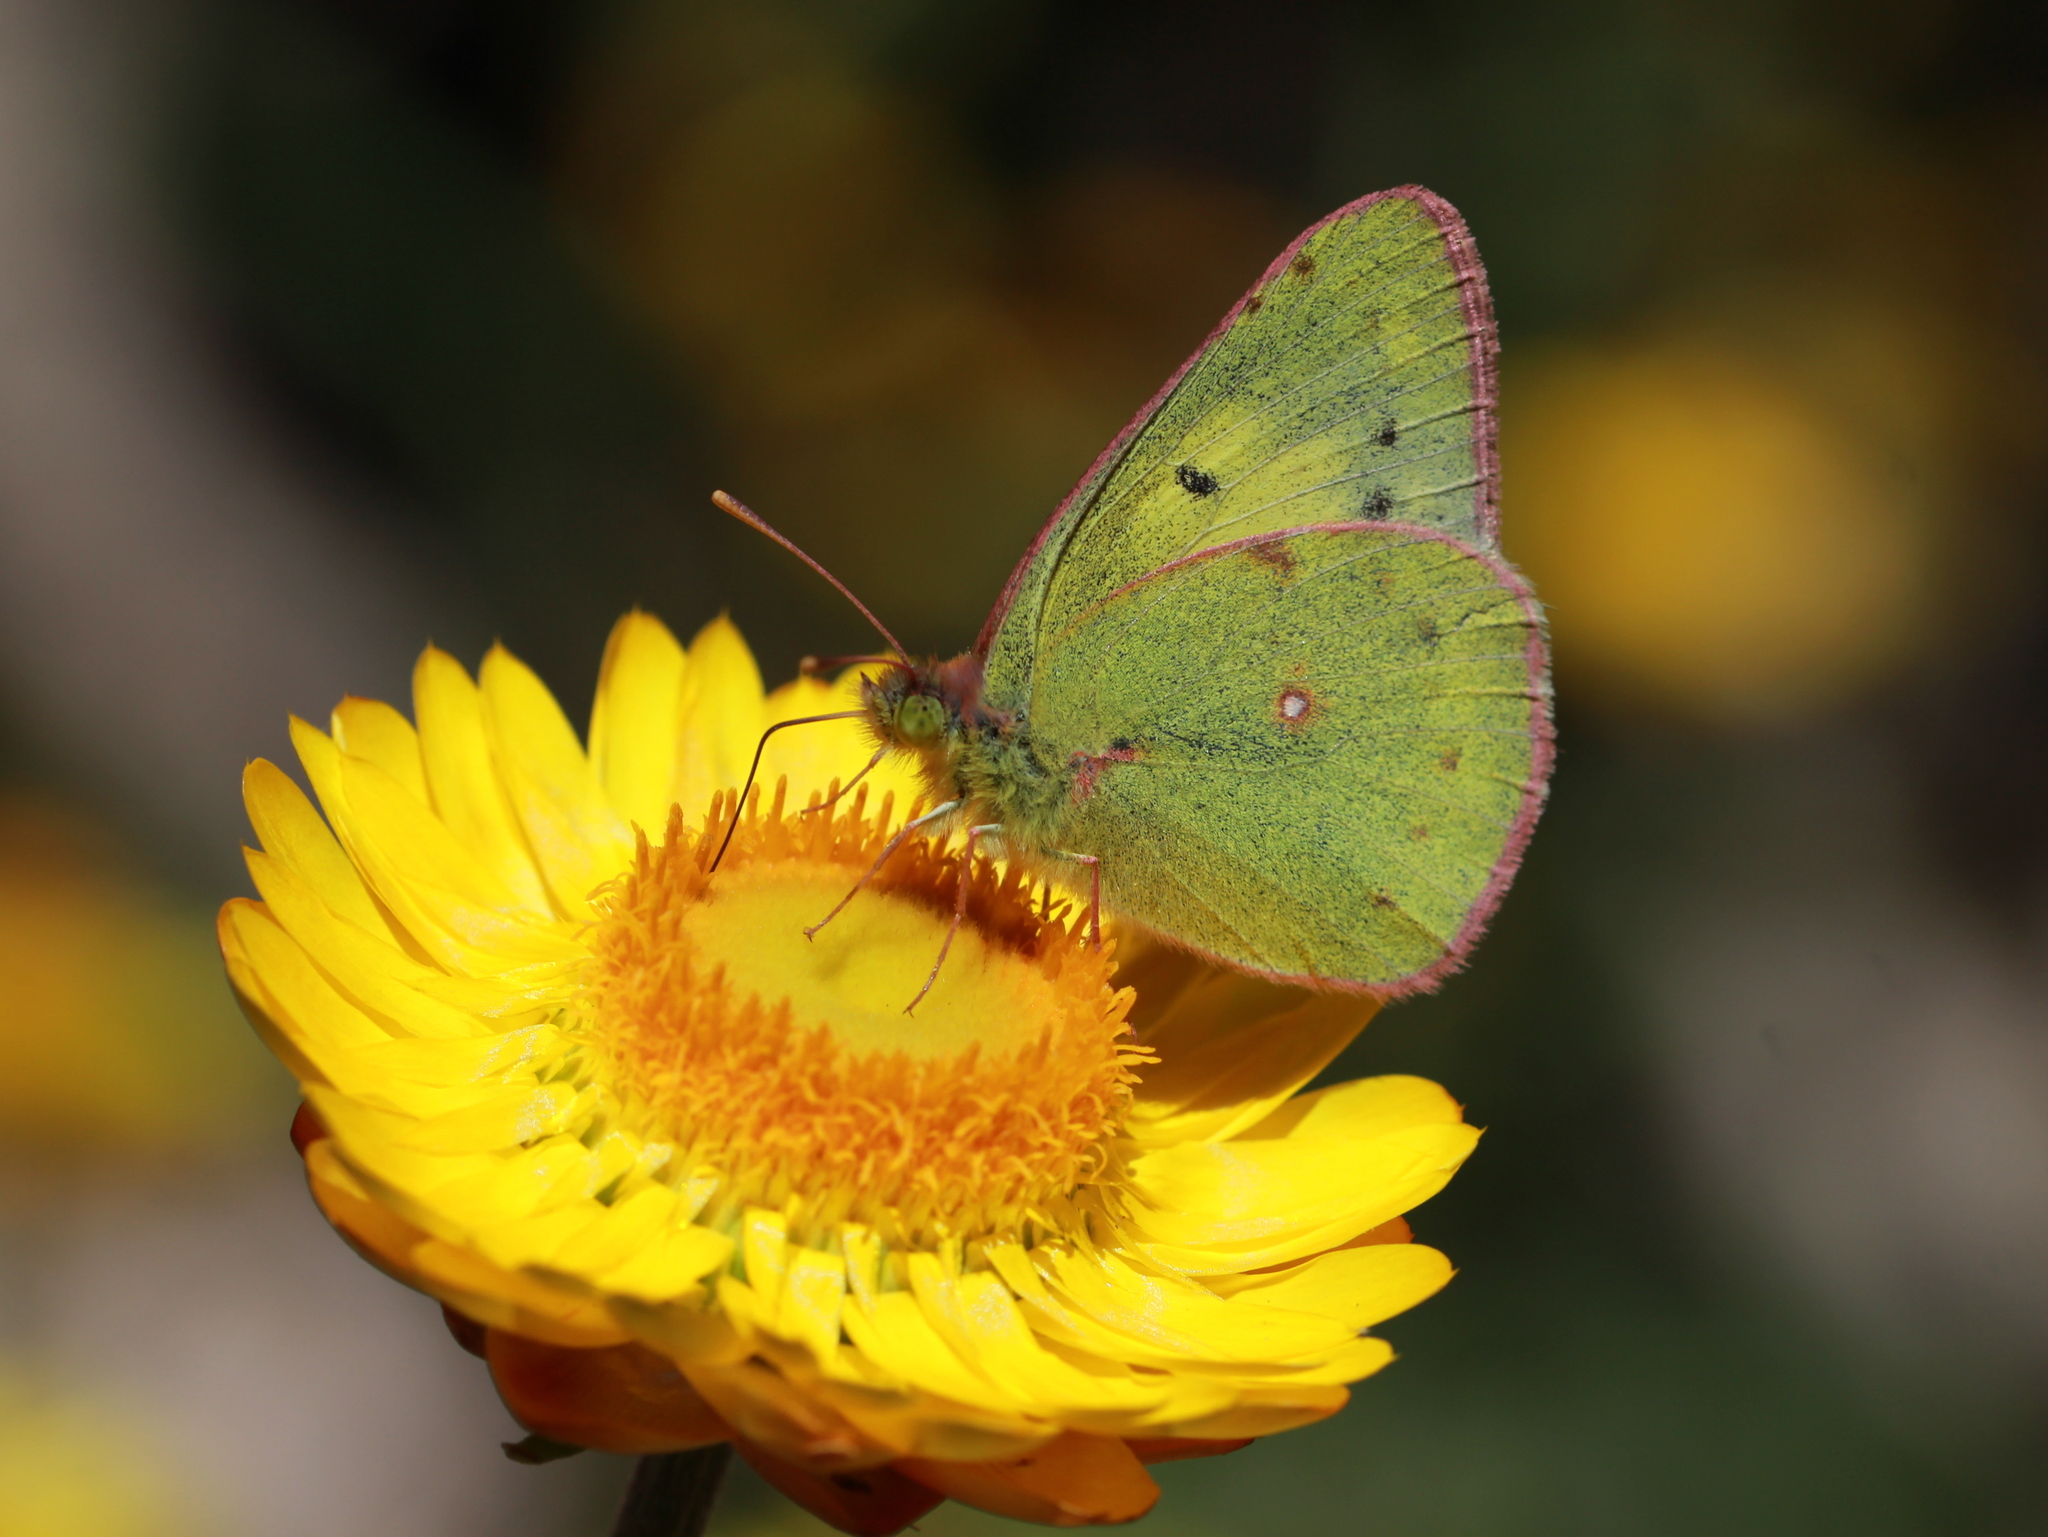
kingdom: Animalia
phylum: Arthropoda
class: Insecta
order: Lepidoptera
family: Pieridae
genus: Colias
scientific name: Colias nilagiriensis
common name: Nilgiri clouded yellow
